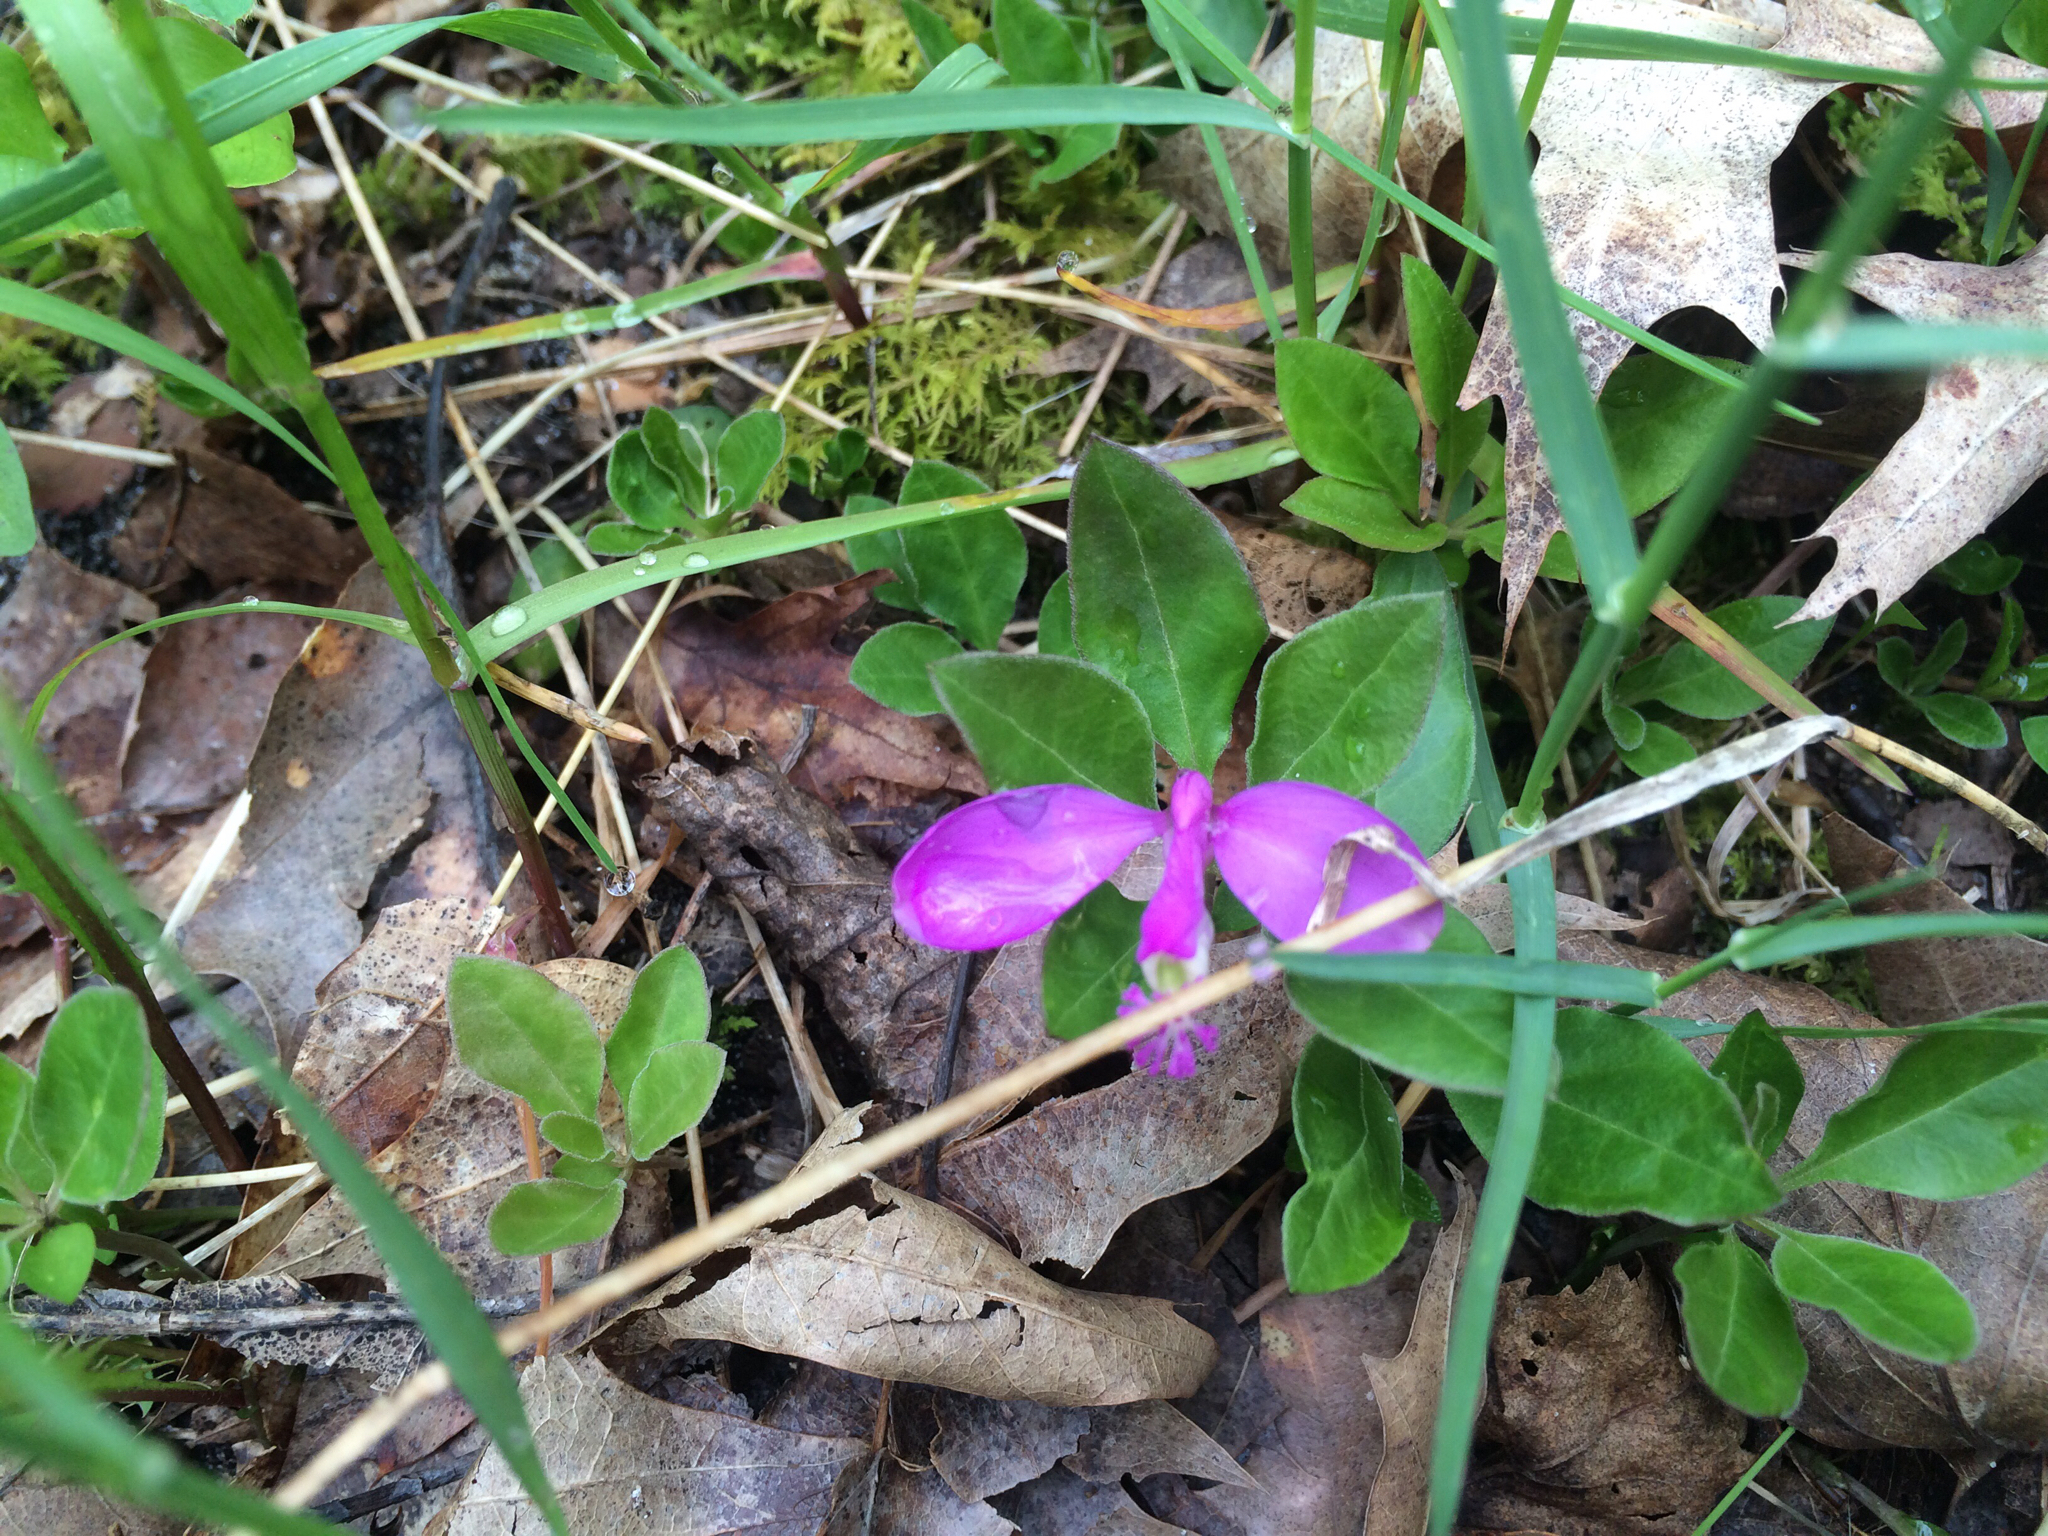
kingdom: Plantae
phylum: Tracheophyta
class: Magnoliopsida
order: Fabales
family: Polygalaceae
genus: Polygaloides
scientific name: Polygaloides paucifolia
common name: Bird-on-the-wing
